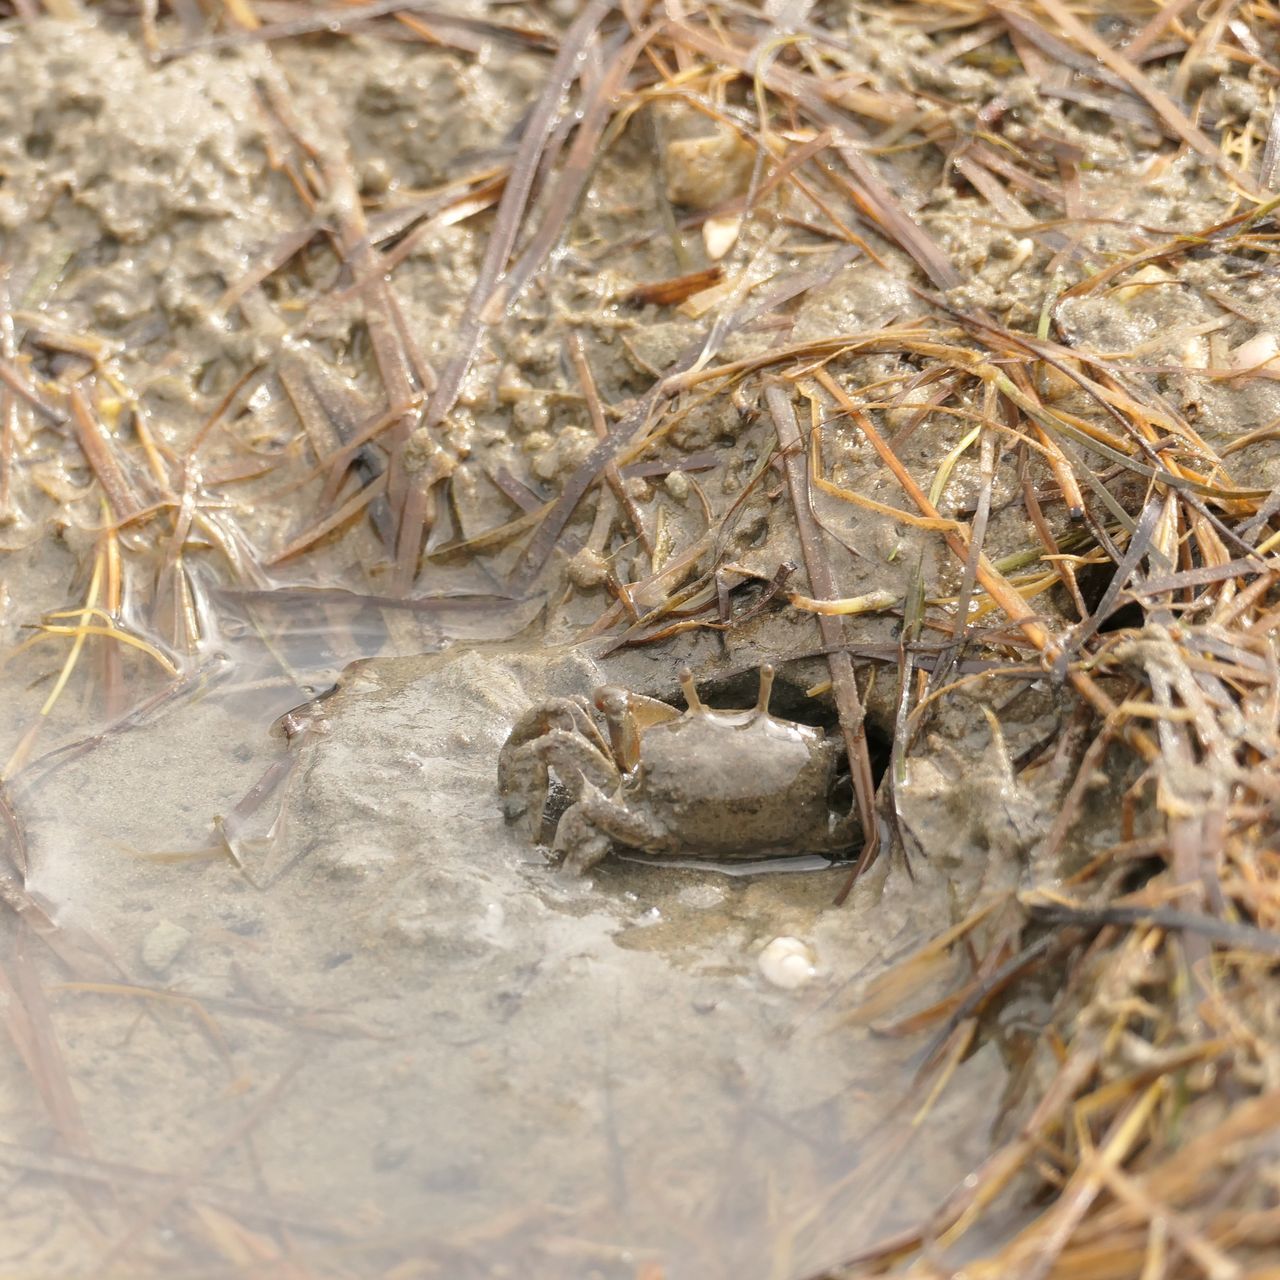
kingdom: Animalia
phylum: Arthropoda
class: Malacostraca
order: Decapoda
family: Macrophthalmidae
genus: Tasmanoplax
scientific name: Tasmanoplax latifrons
